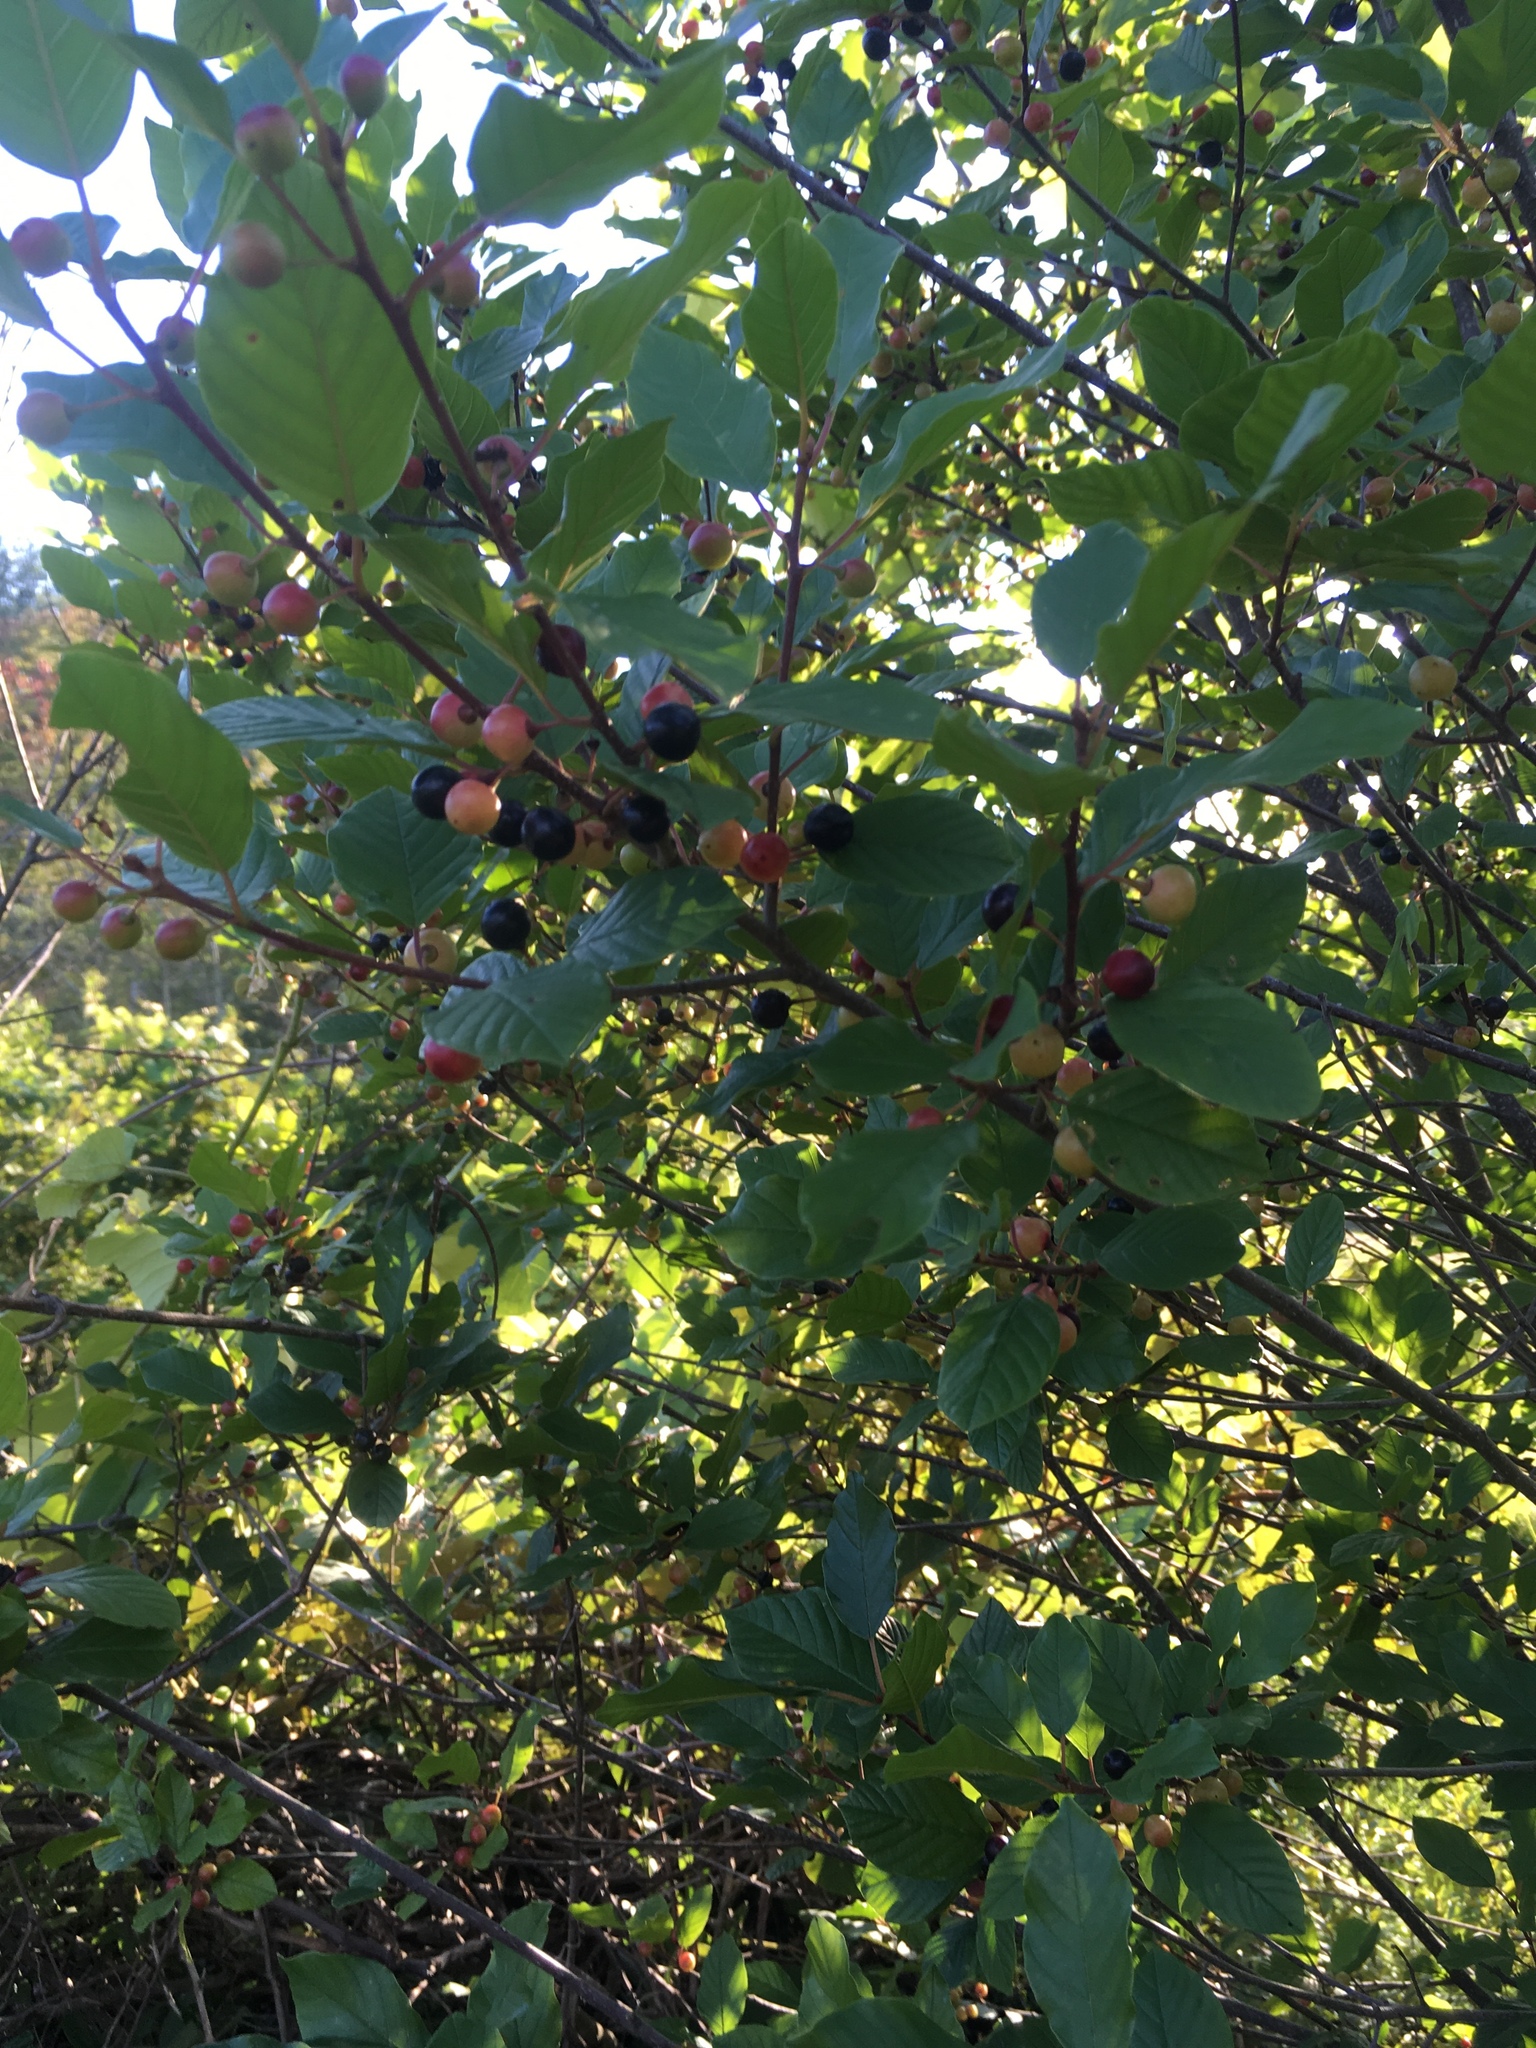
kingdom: Plantae
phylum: Tracheophyta
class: Magnoliopsida
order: Rosales
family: Rhamnaceae
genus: Frangula
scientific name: Frangula alnus
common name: Alder buckthorn
